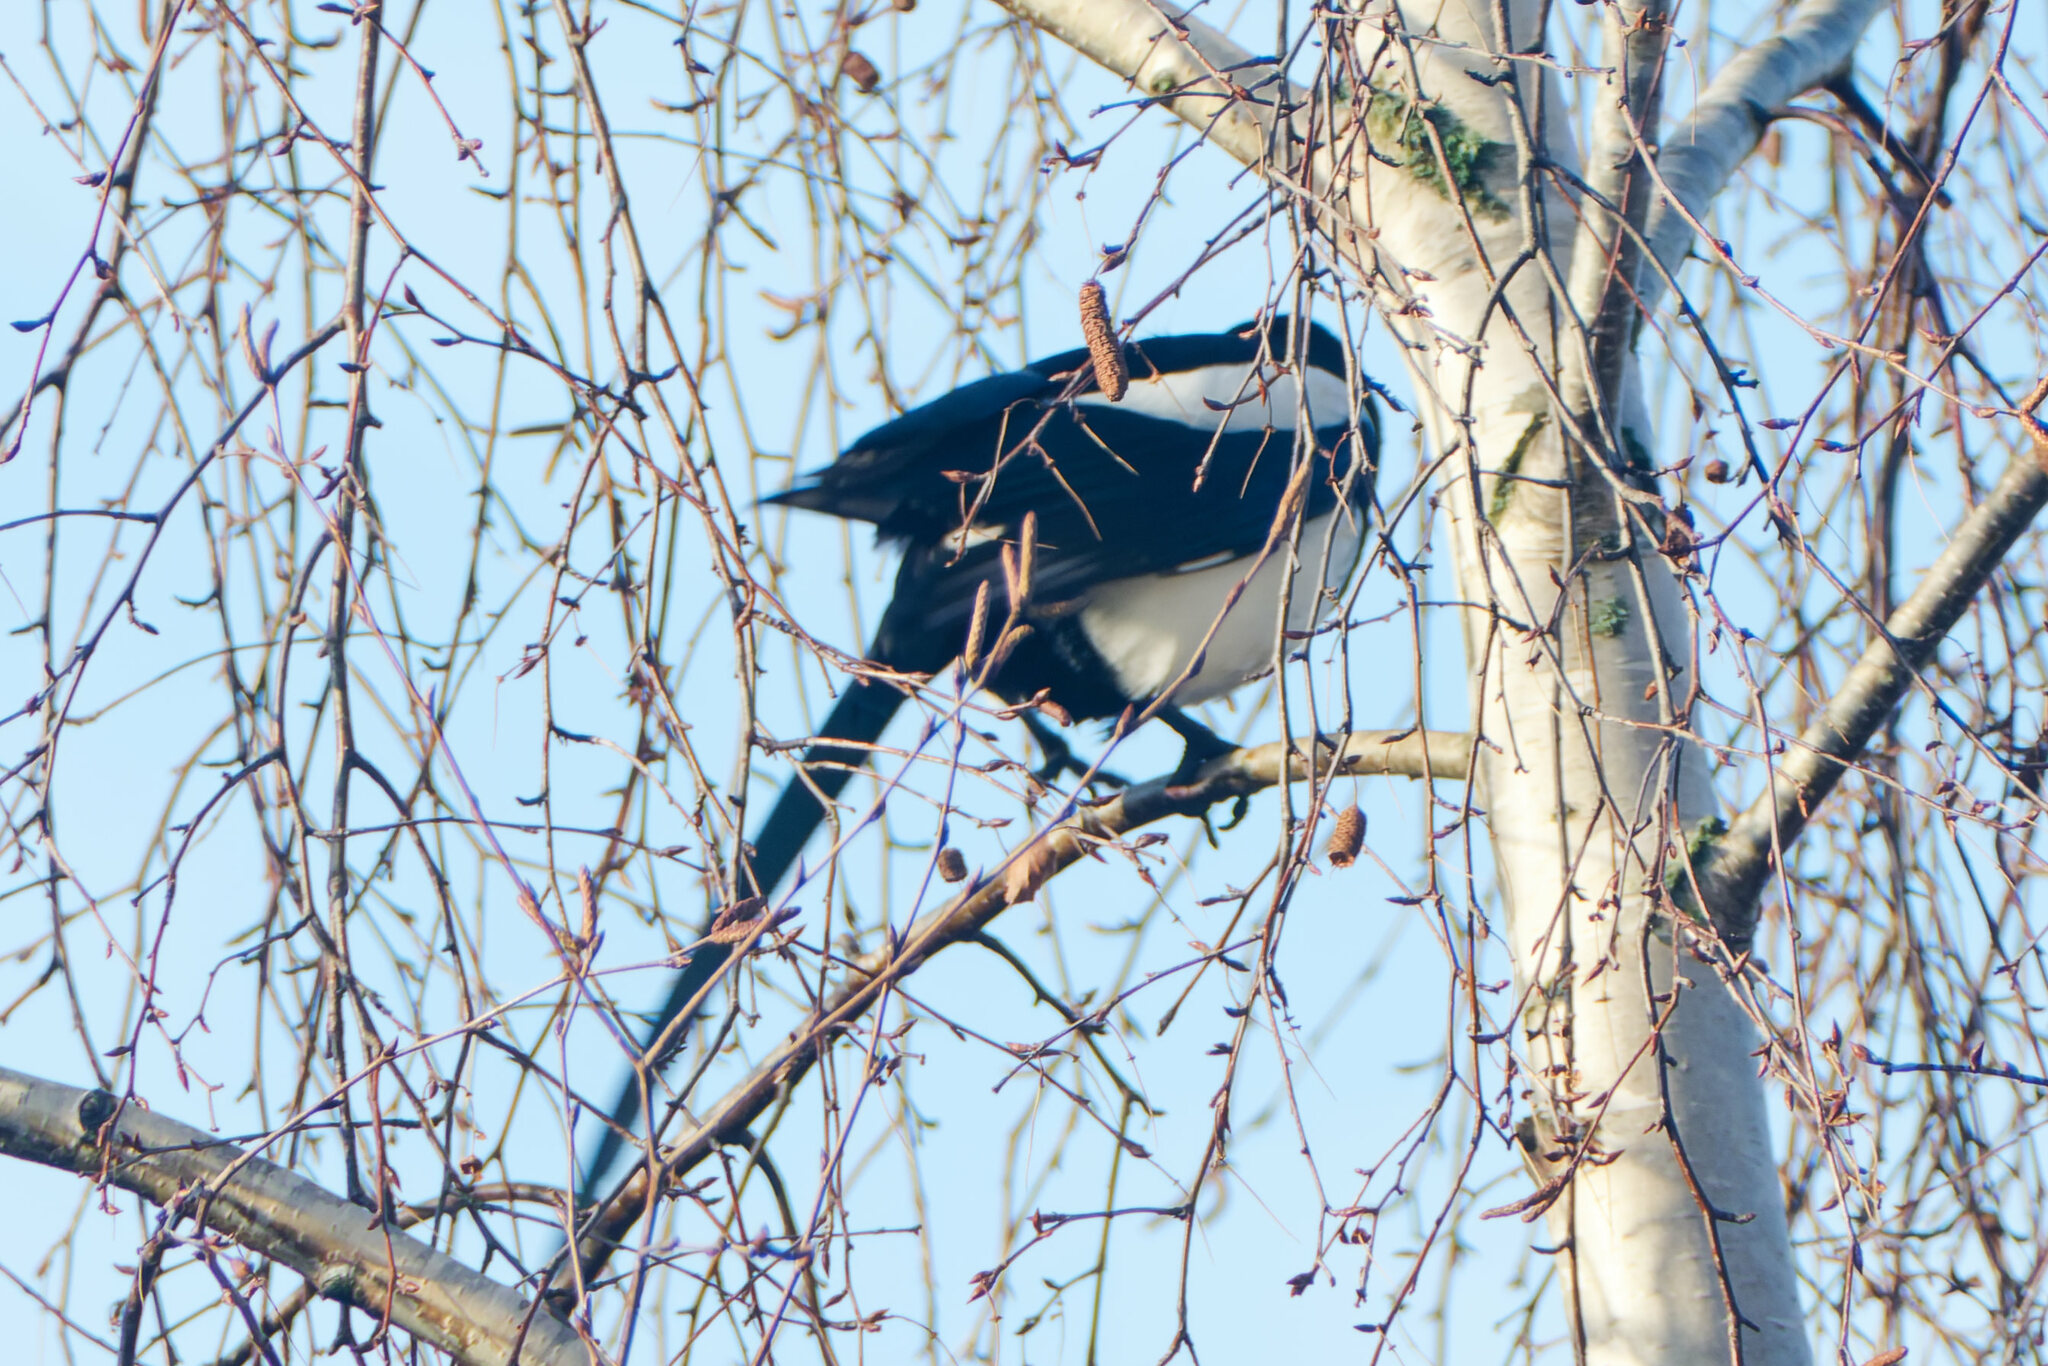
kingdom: Animalia
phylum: Chordata
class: Aves
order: Passeriformes
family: Corvidae
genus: Pica
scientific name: Pica pica
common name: Eurasian magpie
